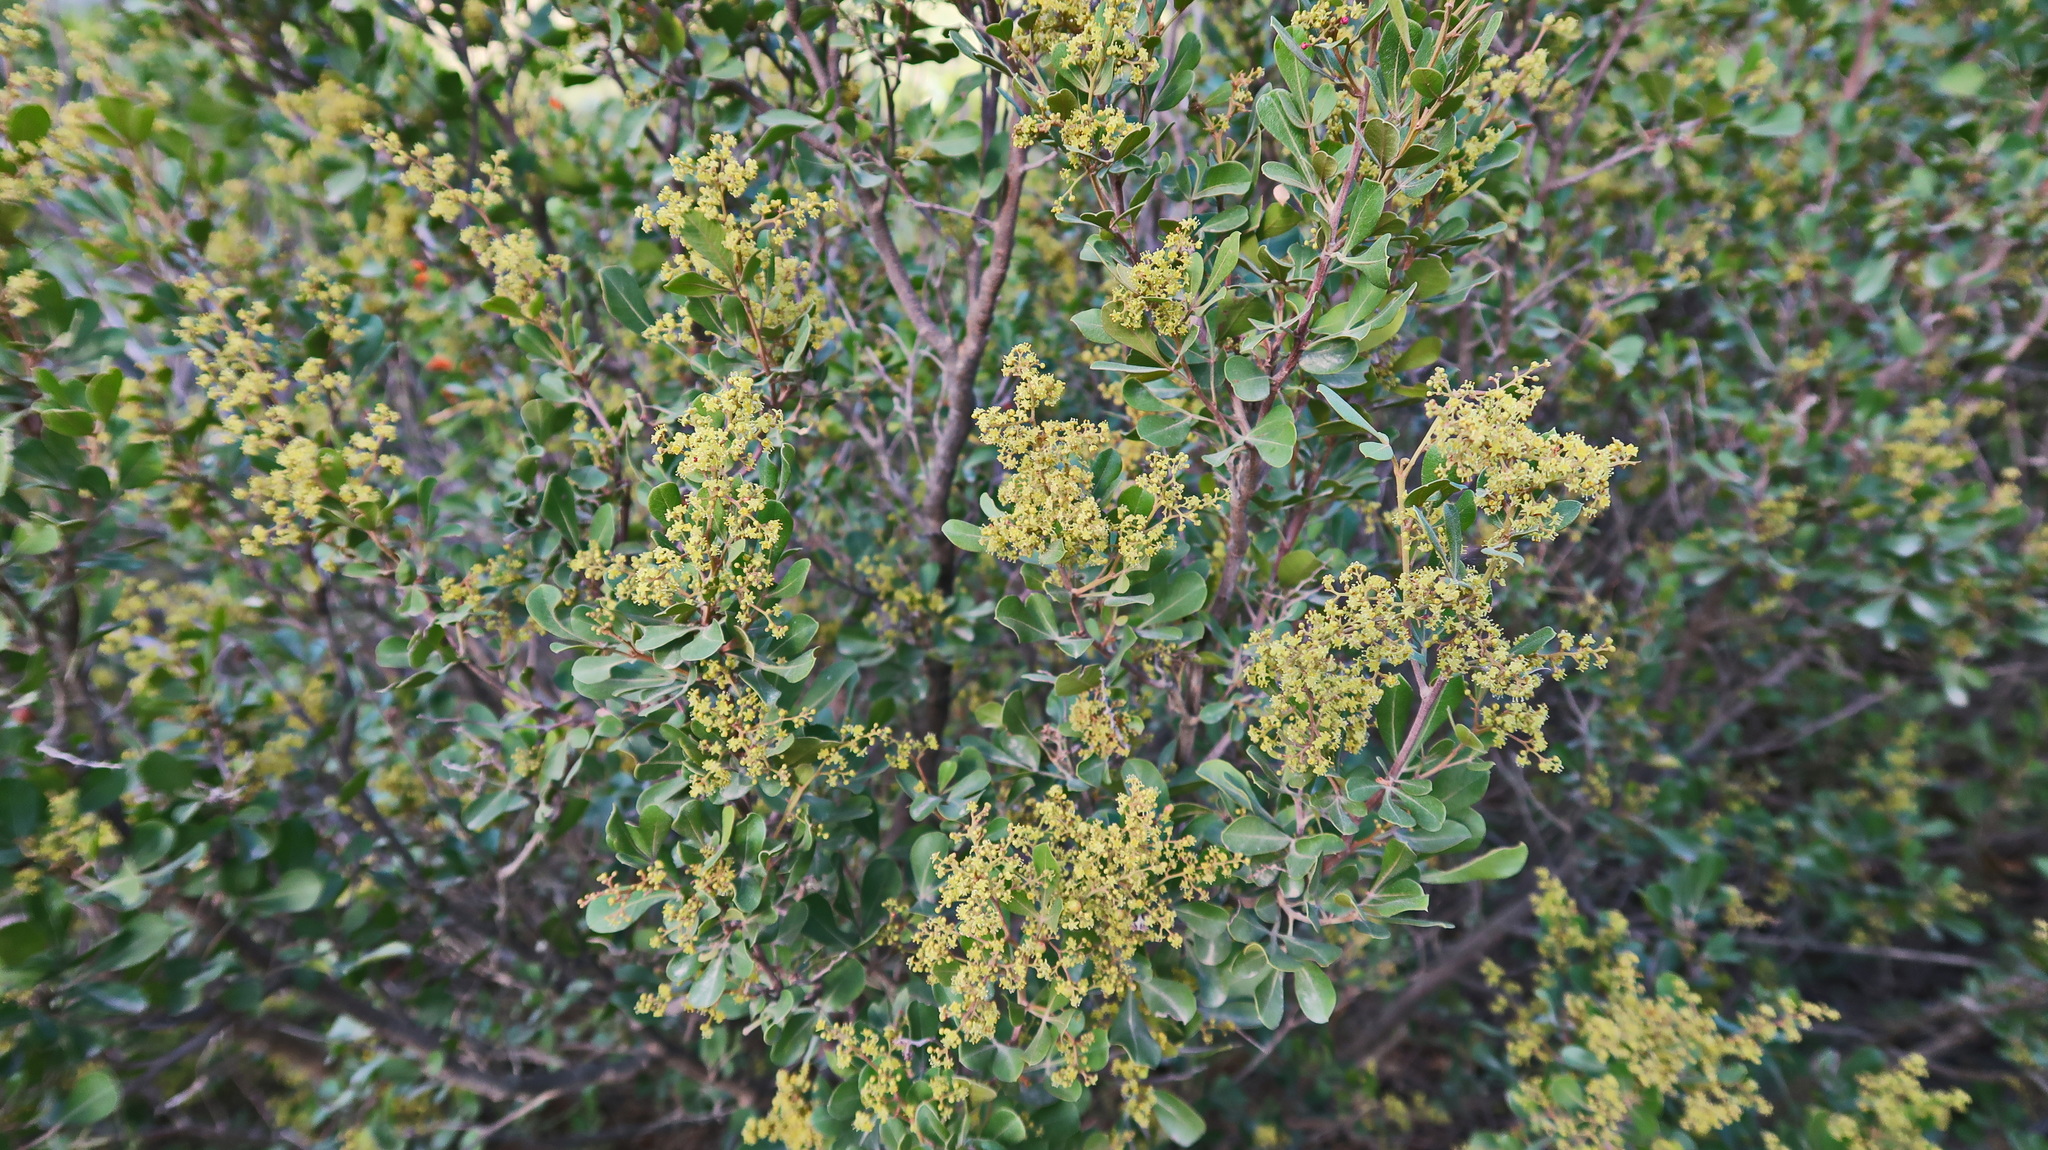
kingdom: Plantae
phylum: Tracheophyta
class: Magnoliopsida
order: Sapindales
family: Anacardiaceae
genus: Searsia
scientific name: Searsia pallens
